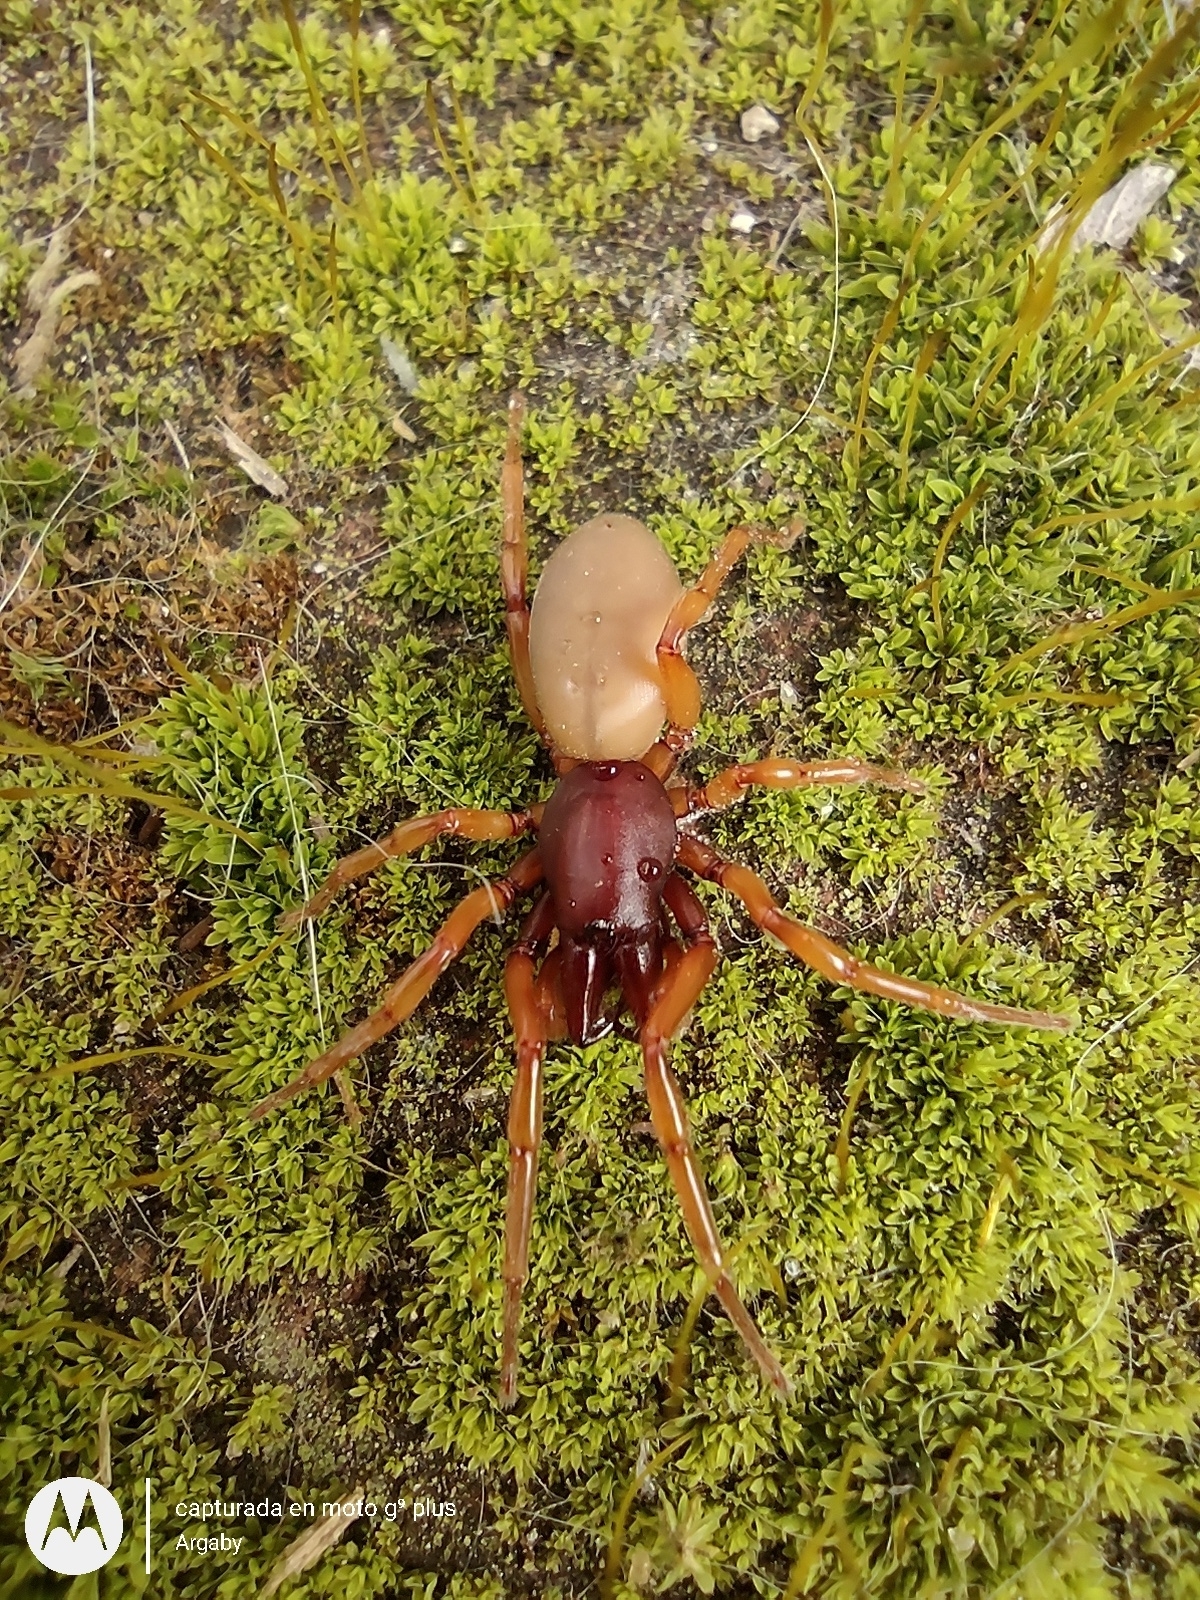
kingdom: Animalia
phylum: Arthropoda
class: Arachnida
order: Araneae
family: Dysderidae
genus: Dysdera
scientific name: Dysdera crocata
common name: Woodlouse spider
